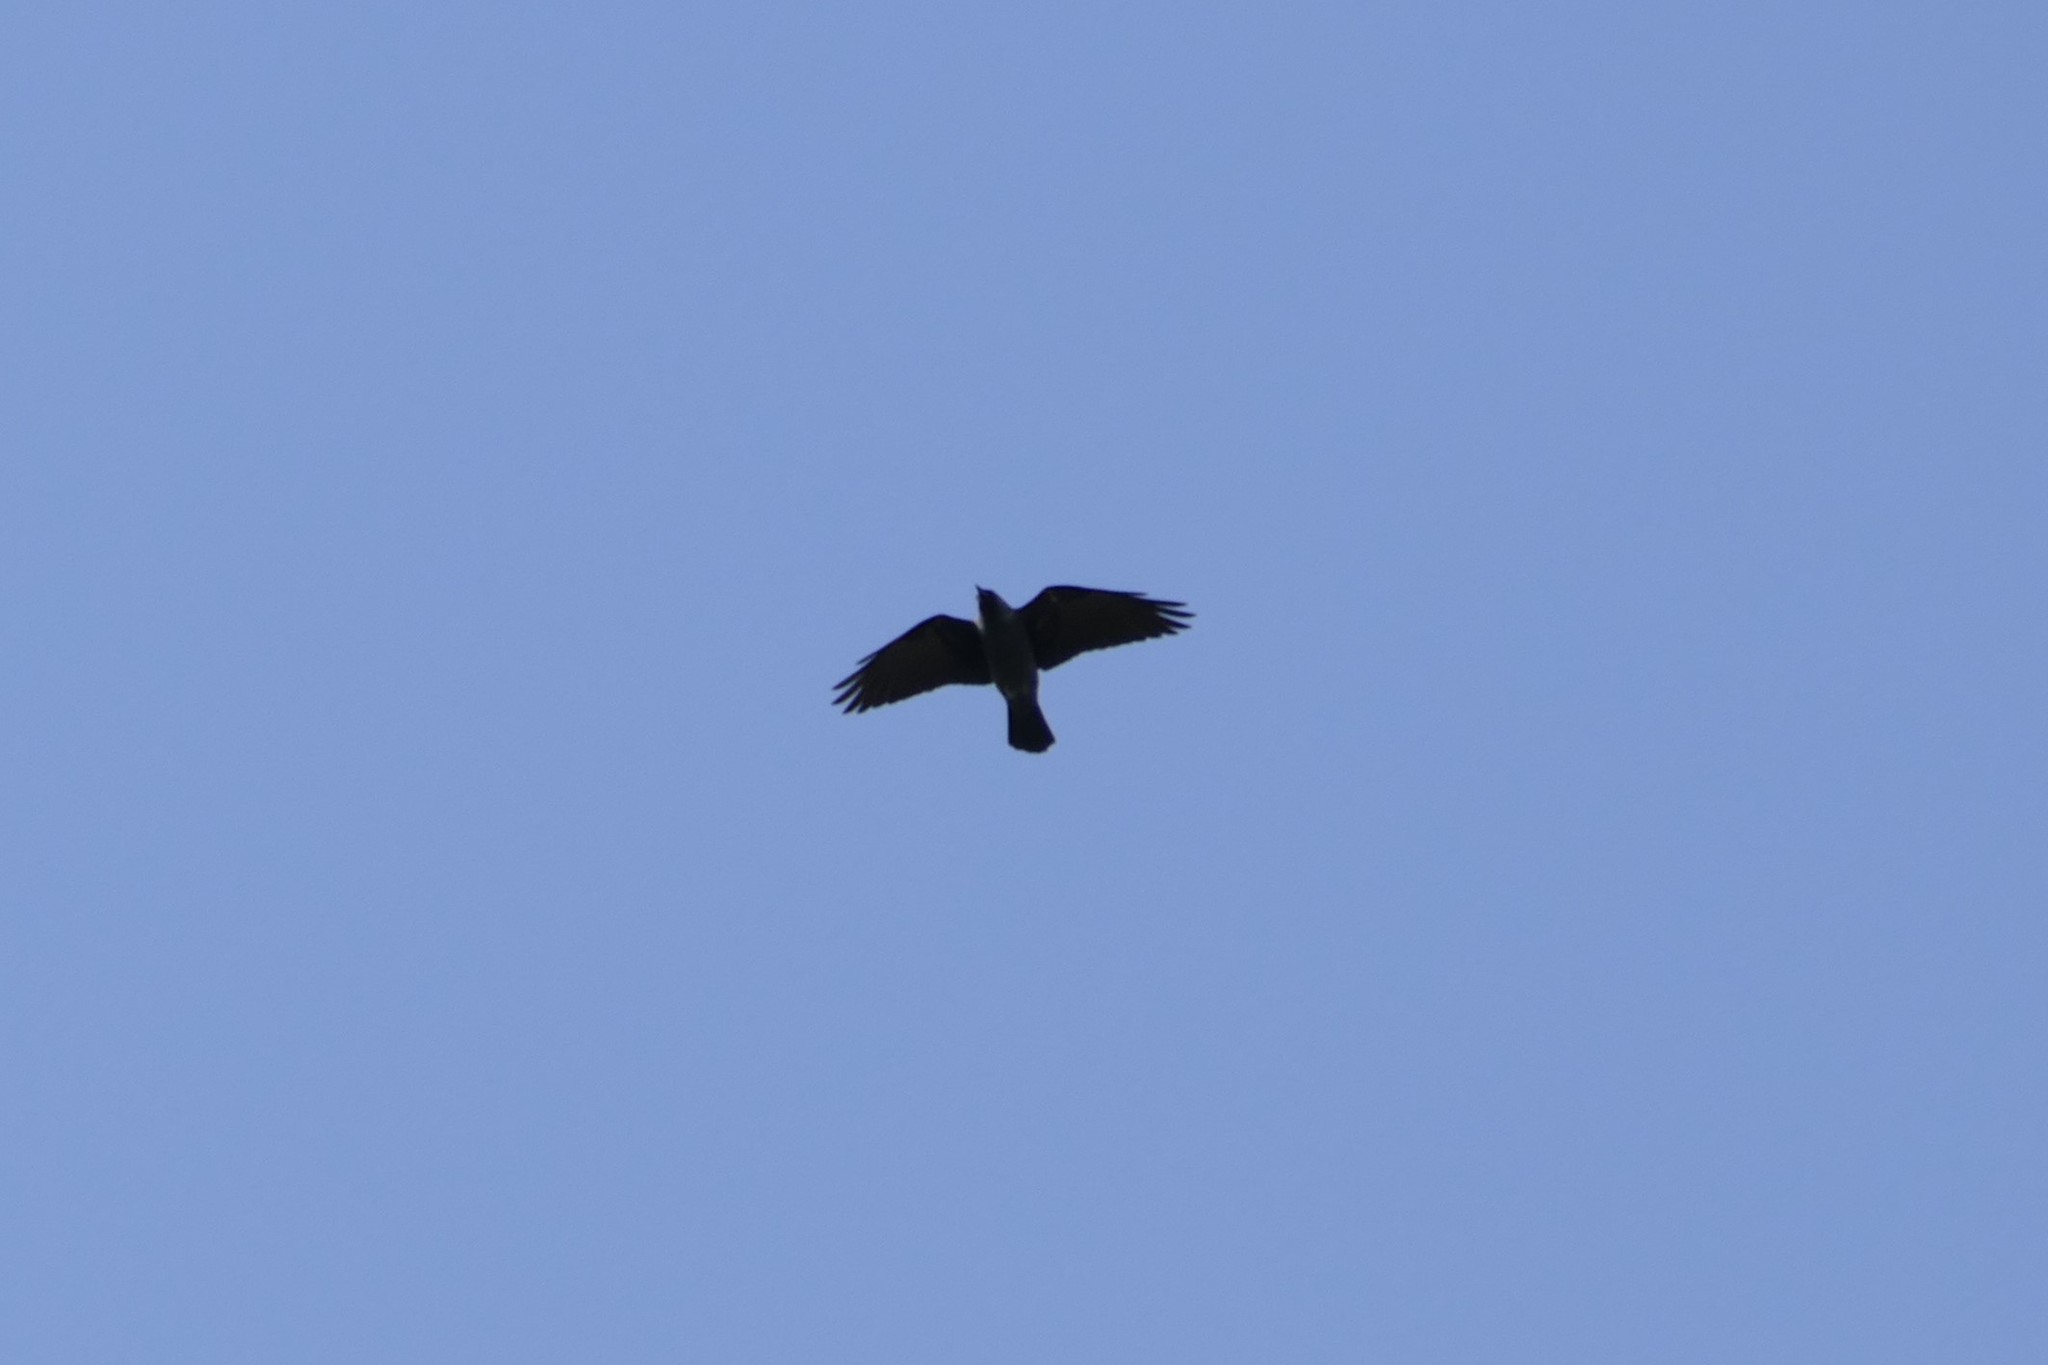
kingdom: Animalia
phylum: Chordata
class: Aves
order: Passeriformes
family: Corvidae
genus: Coloeus
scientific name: Coloeus monedula
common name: Western jackdaw
